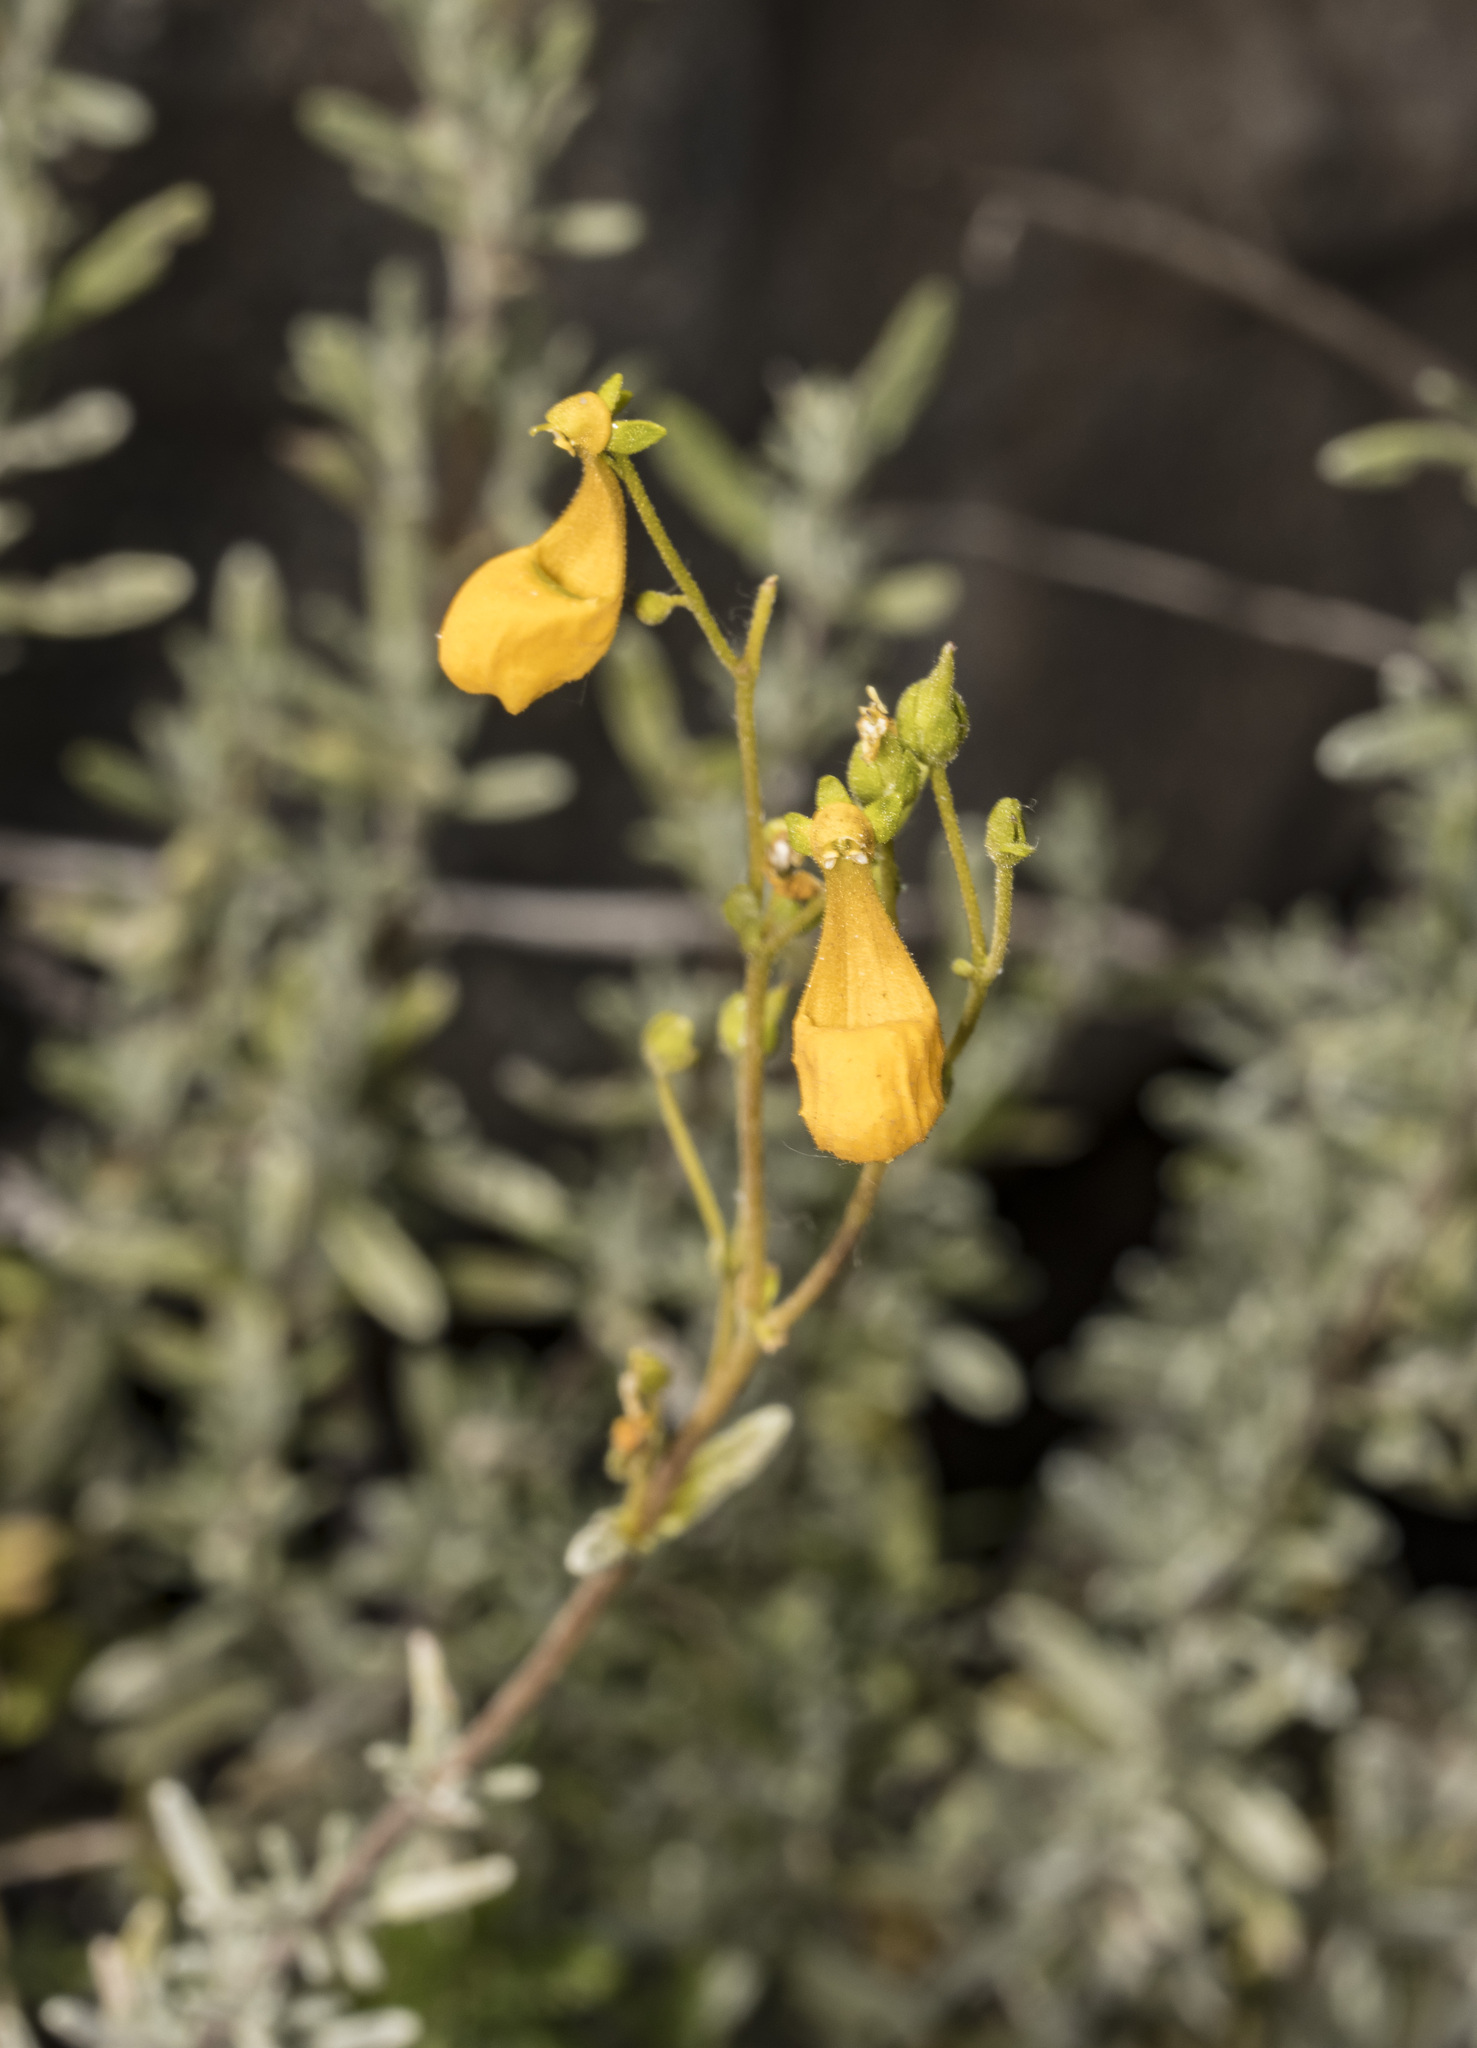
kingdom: Plantae
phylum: Tracheophyta
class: Magnoliopsida
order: Lamiales
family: Calceolariaceae
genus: Calceolaria
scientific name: Calceolaria segethii
